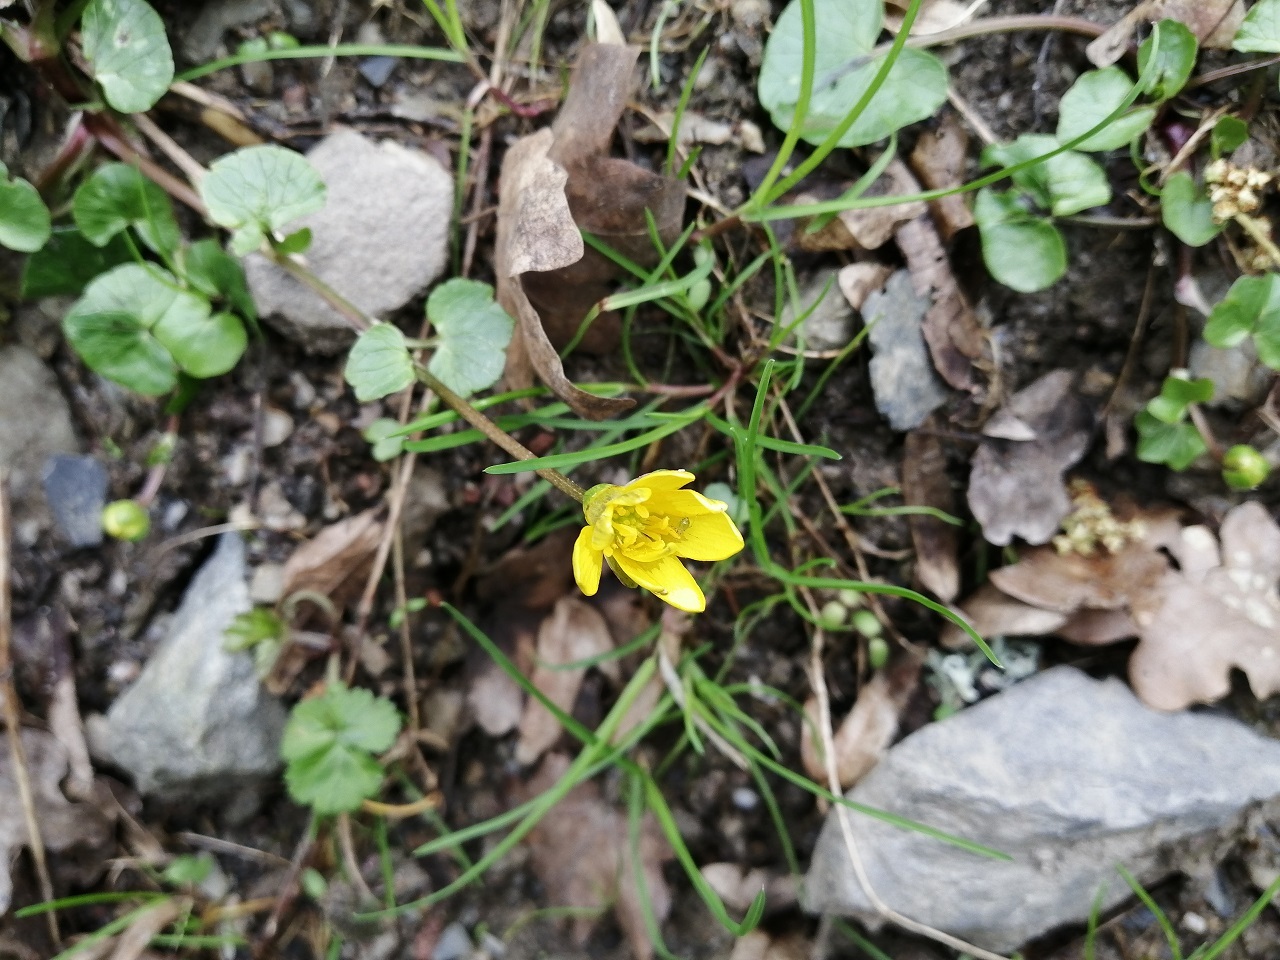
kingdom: Plantae
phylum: Tracheophyta
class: Magnoliopsida
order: Ranunculales
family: Ranunculaceae
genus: Ficaria
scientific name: Ficaria verna
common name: Lesser celandine
